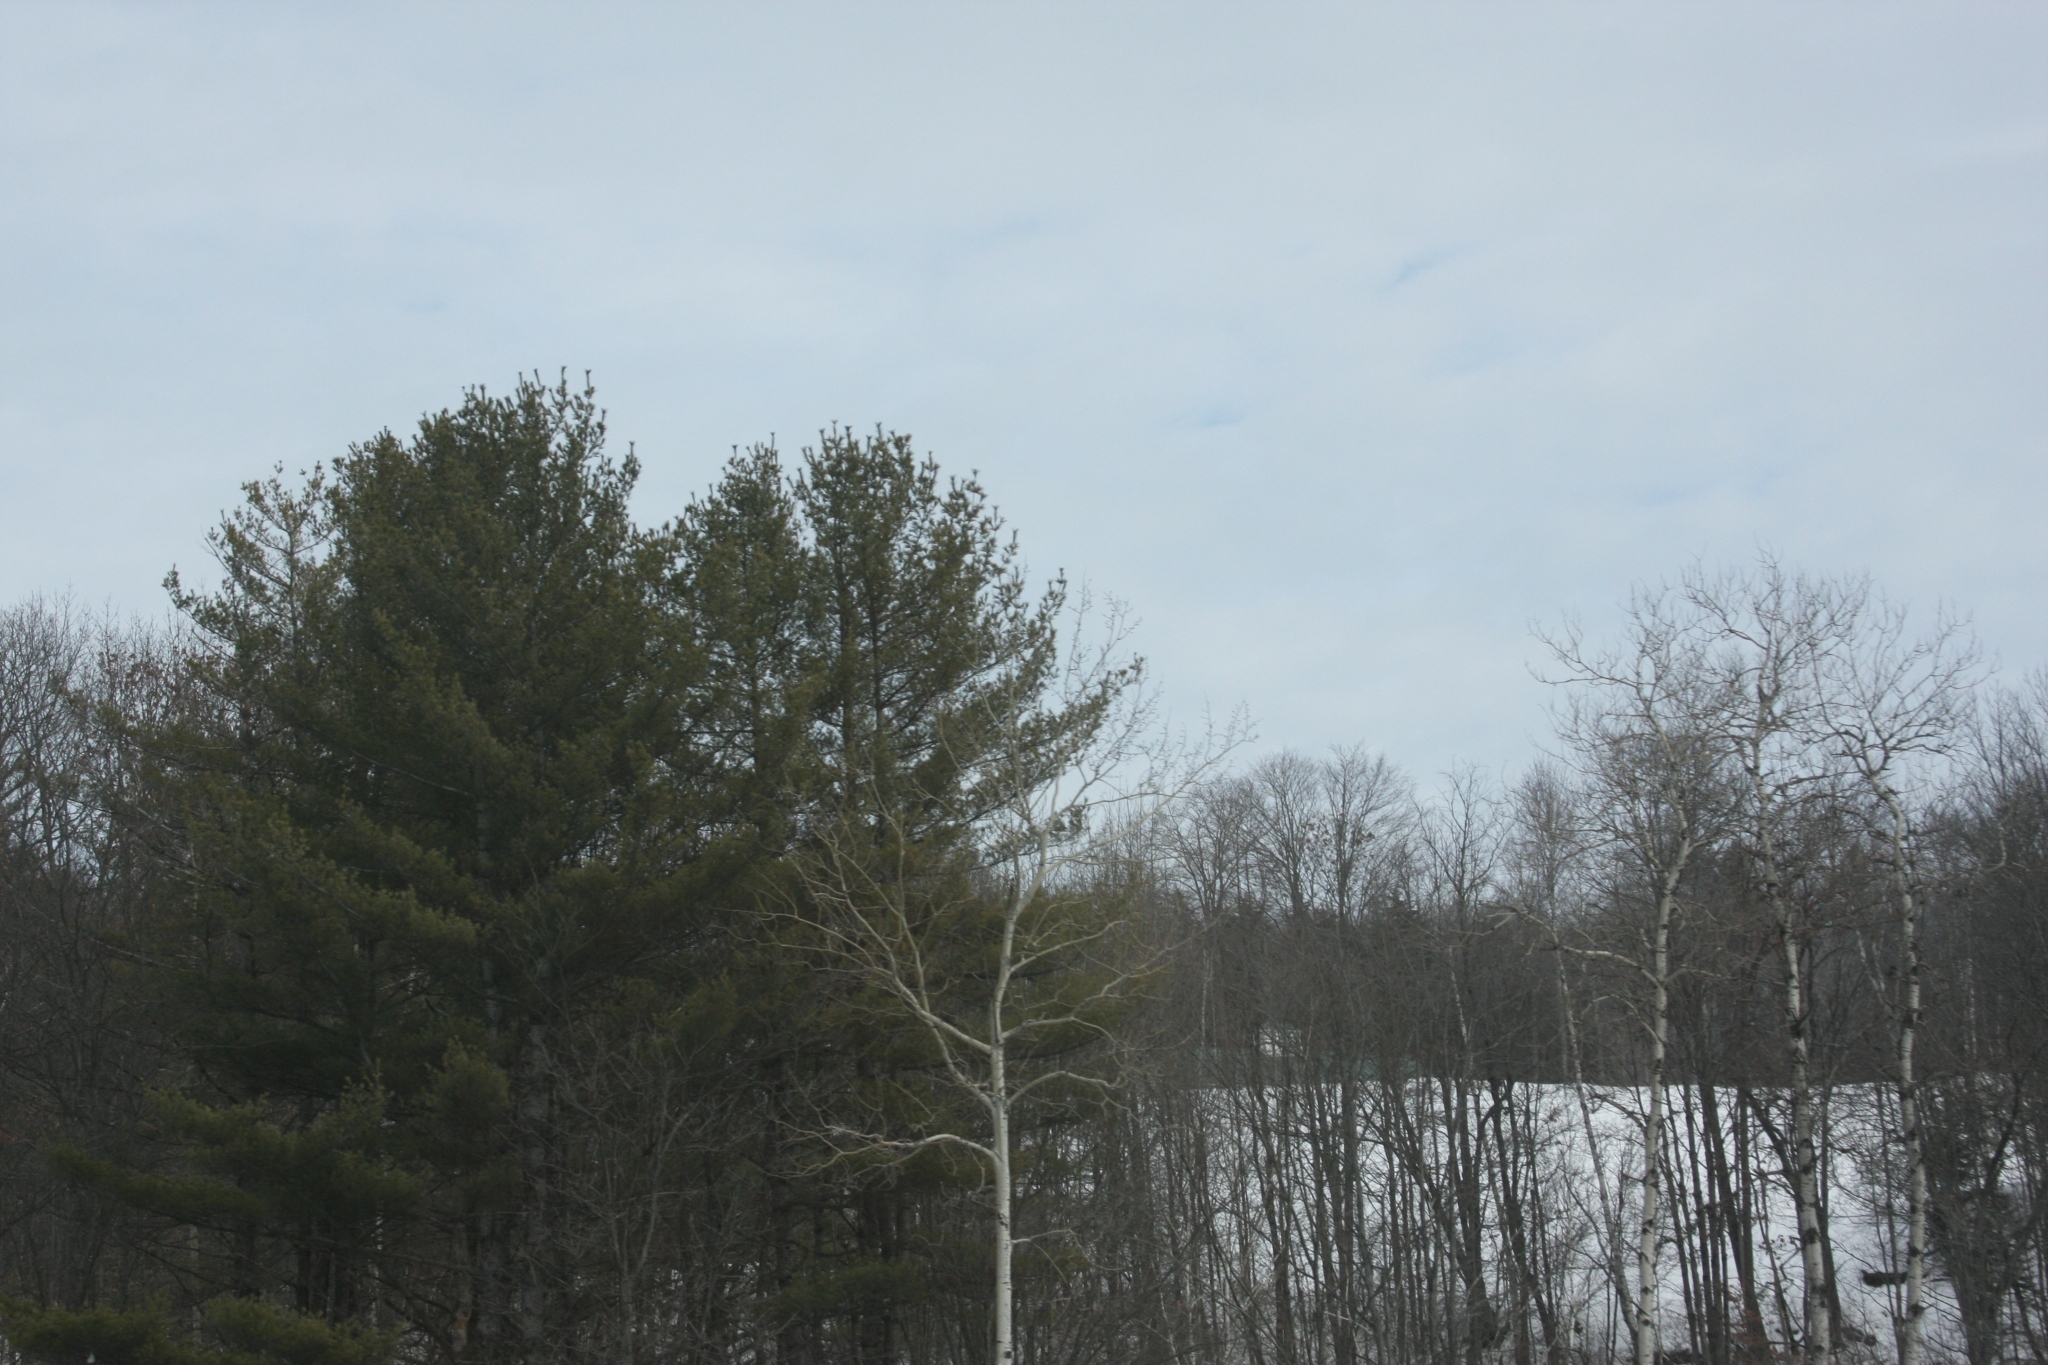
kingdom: Plantae
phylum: Tracheophyta
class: Pinopsida
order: Pinales
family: Pinaceae
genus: Pinus
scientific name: Pinus strobus
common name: Weymouth pine
